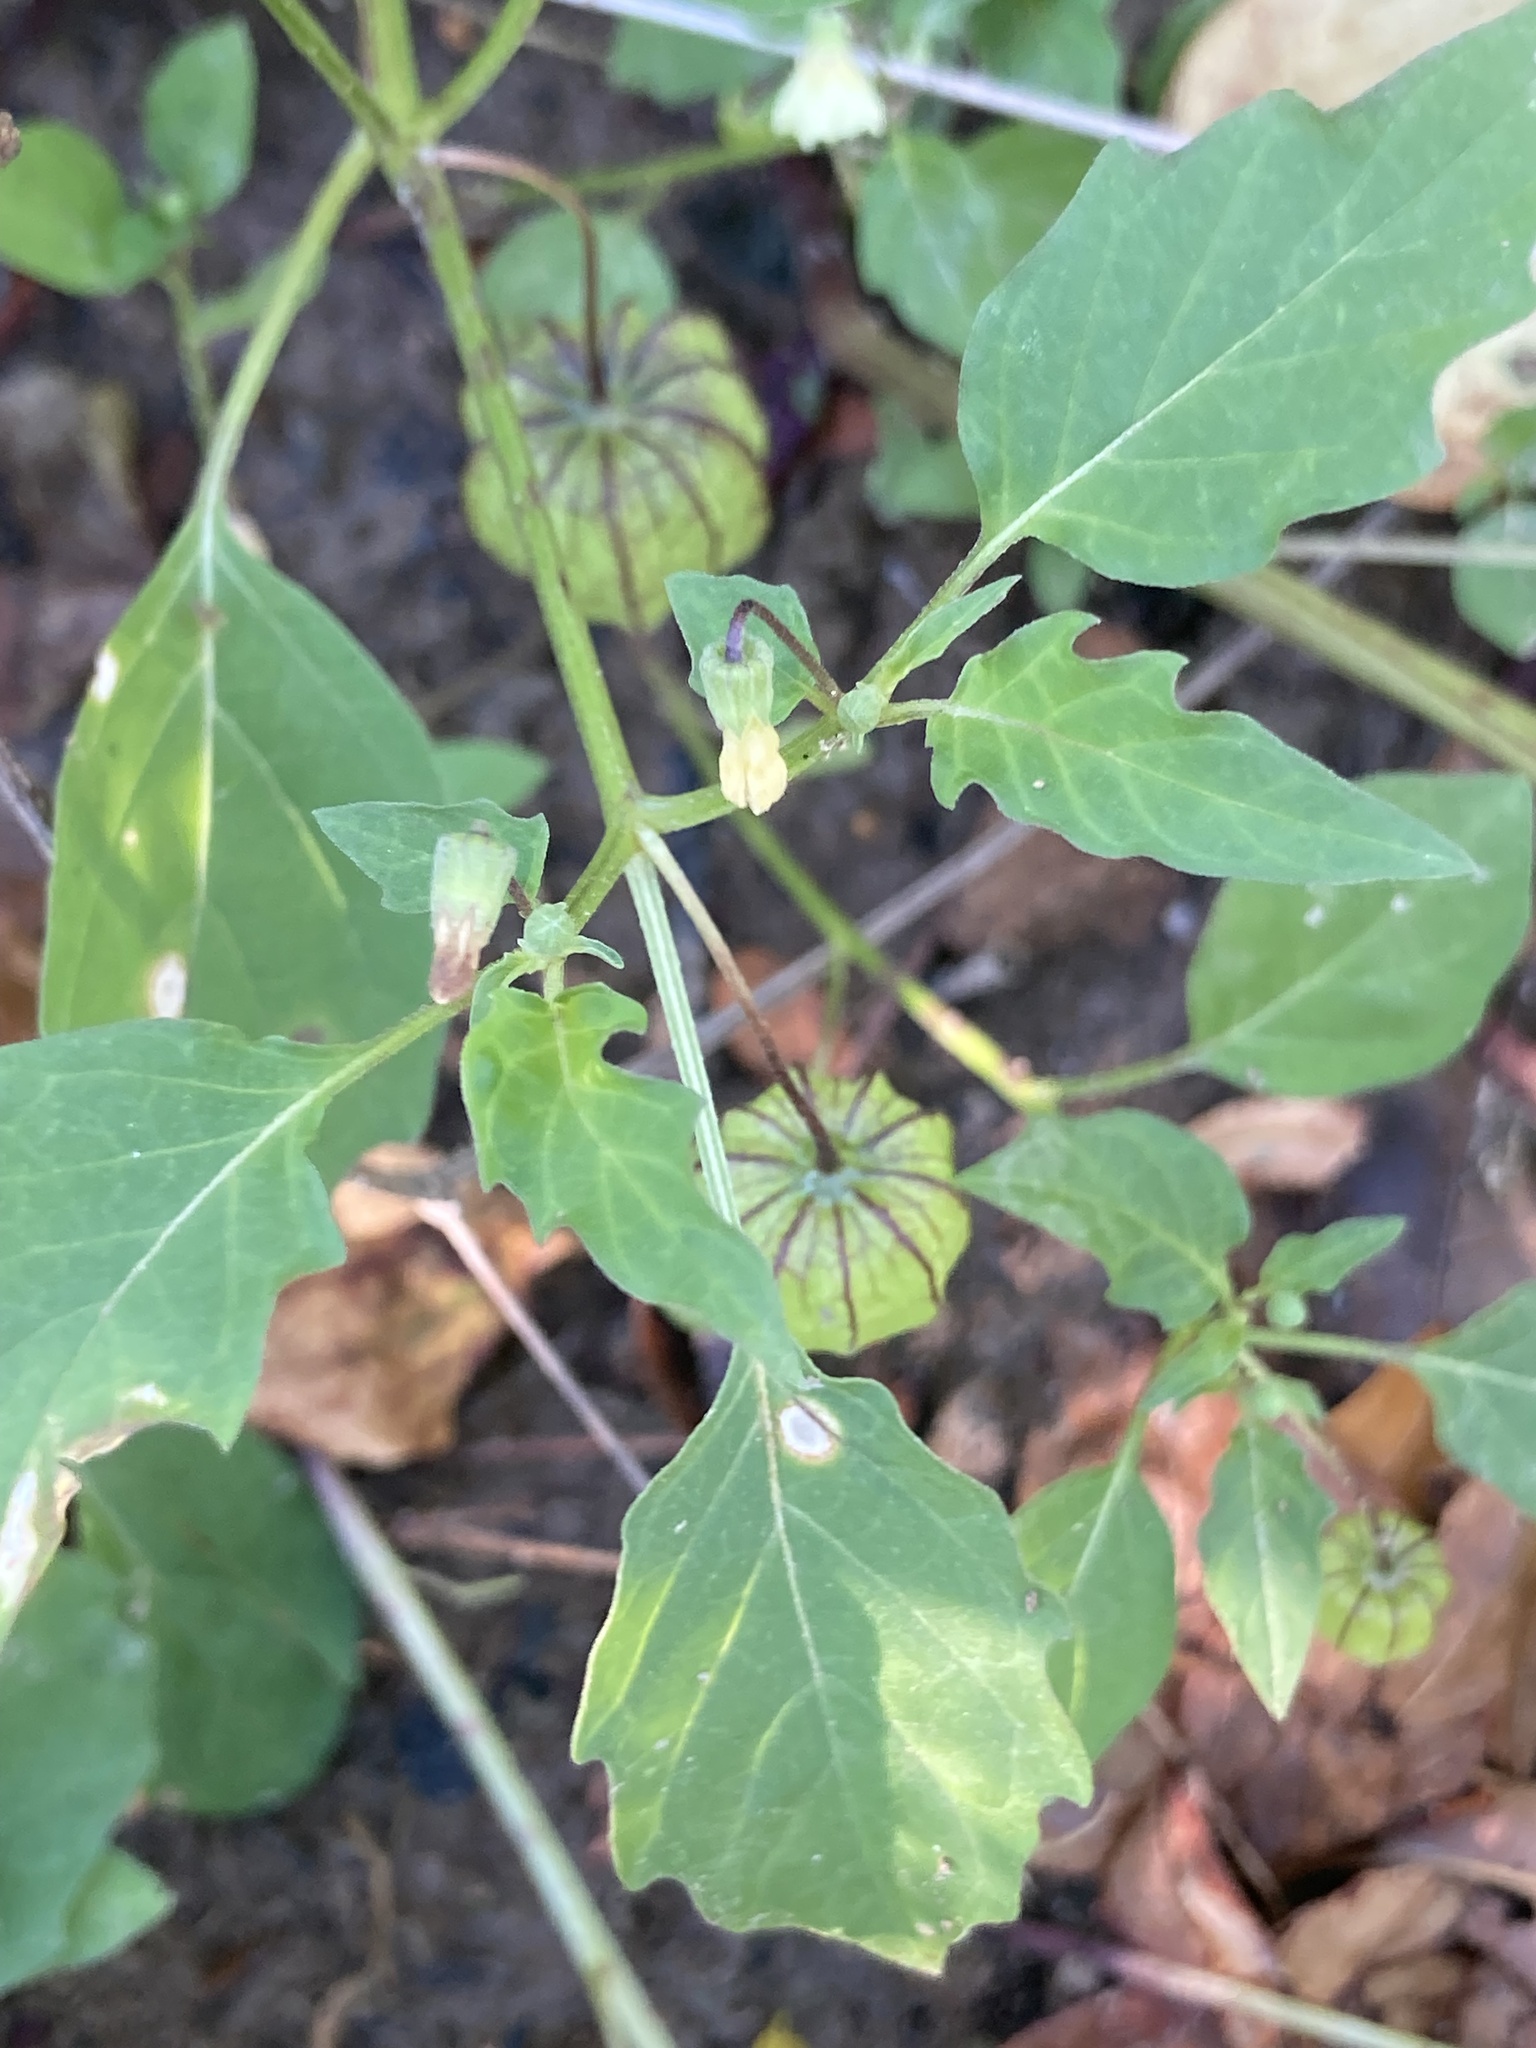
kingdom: Plantae
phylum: Tracheophyta
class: Magnoliopsida
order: Solanales
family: Solanaceae
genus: Physalis
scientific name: Physalis angulata
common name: Angular winter-cherry
